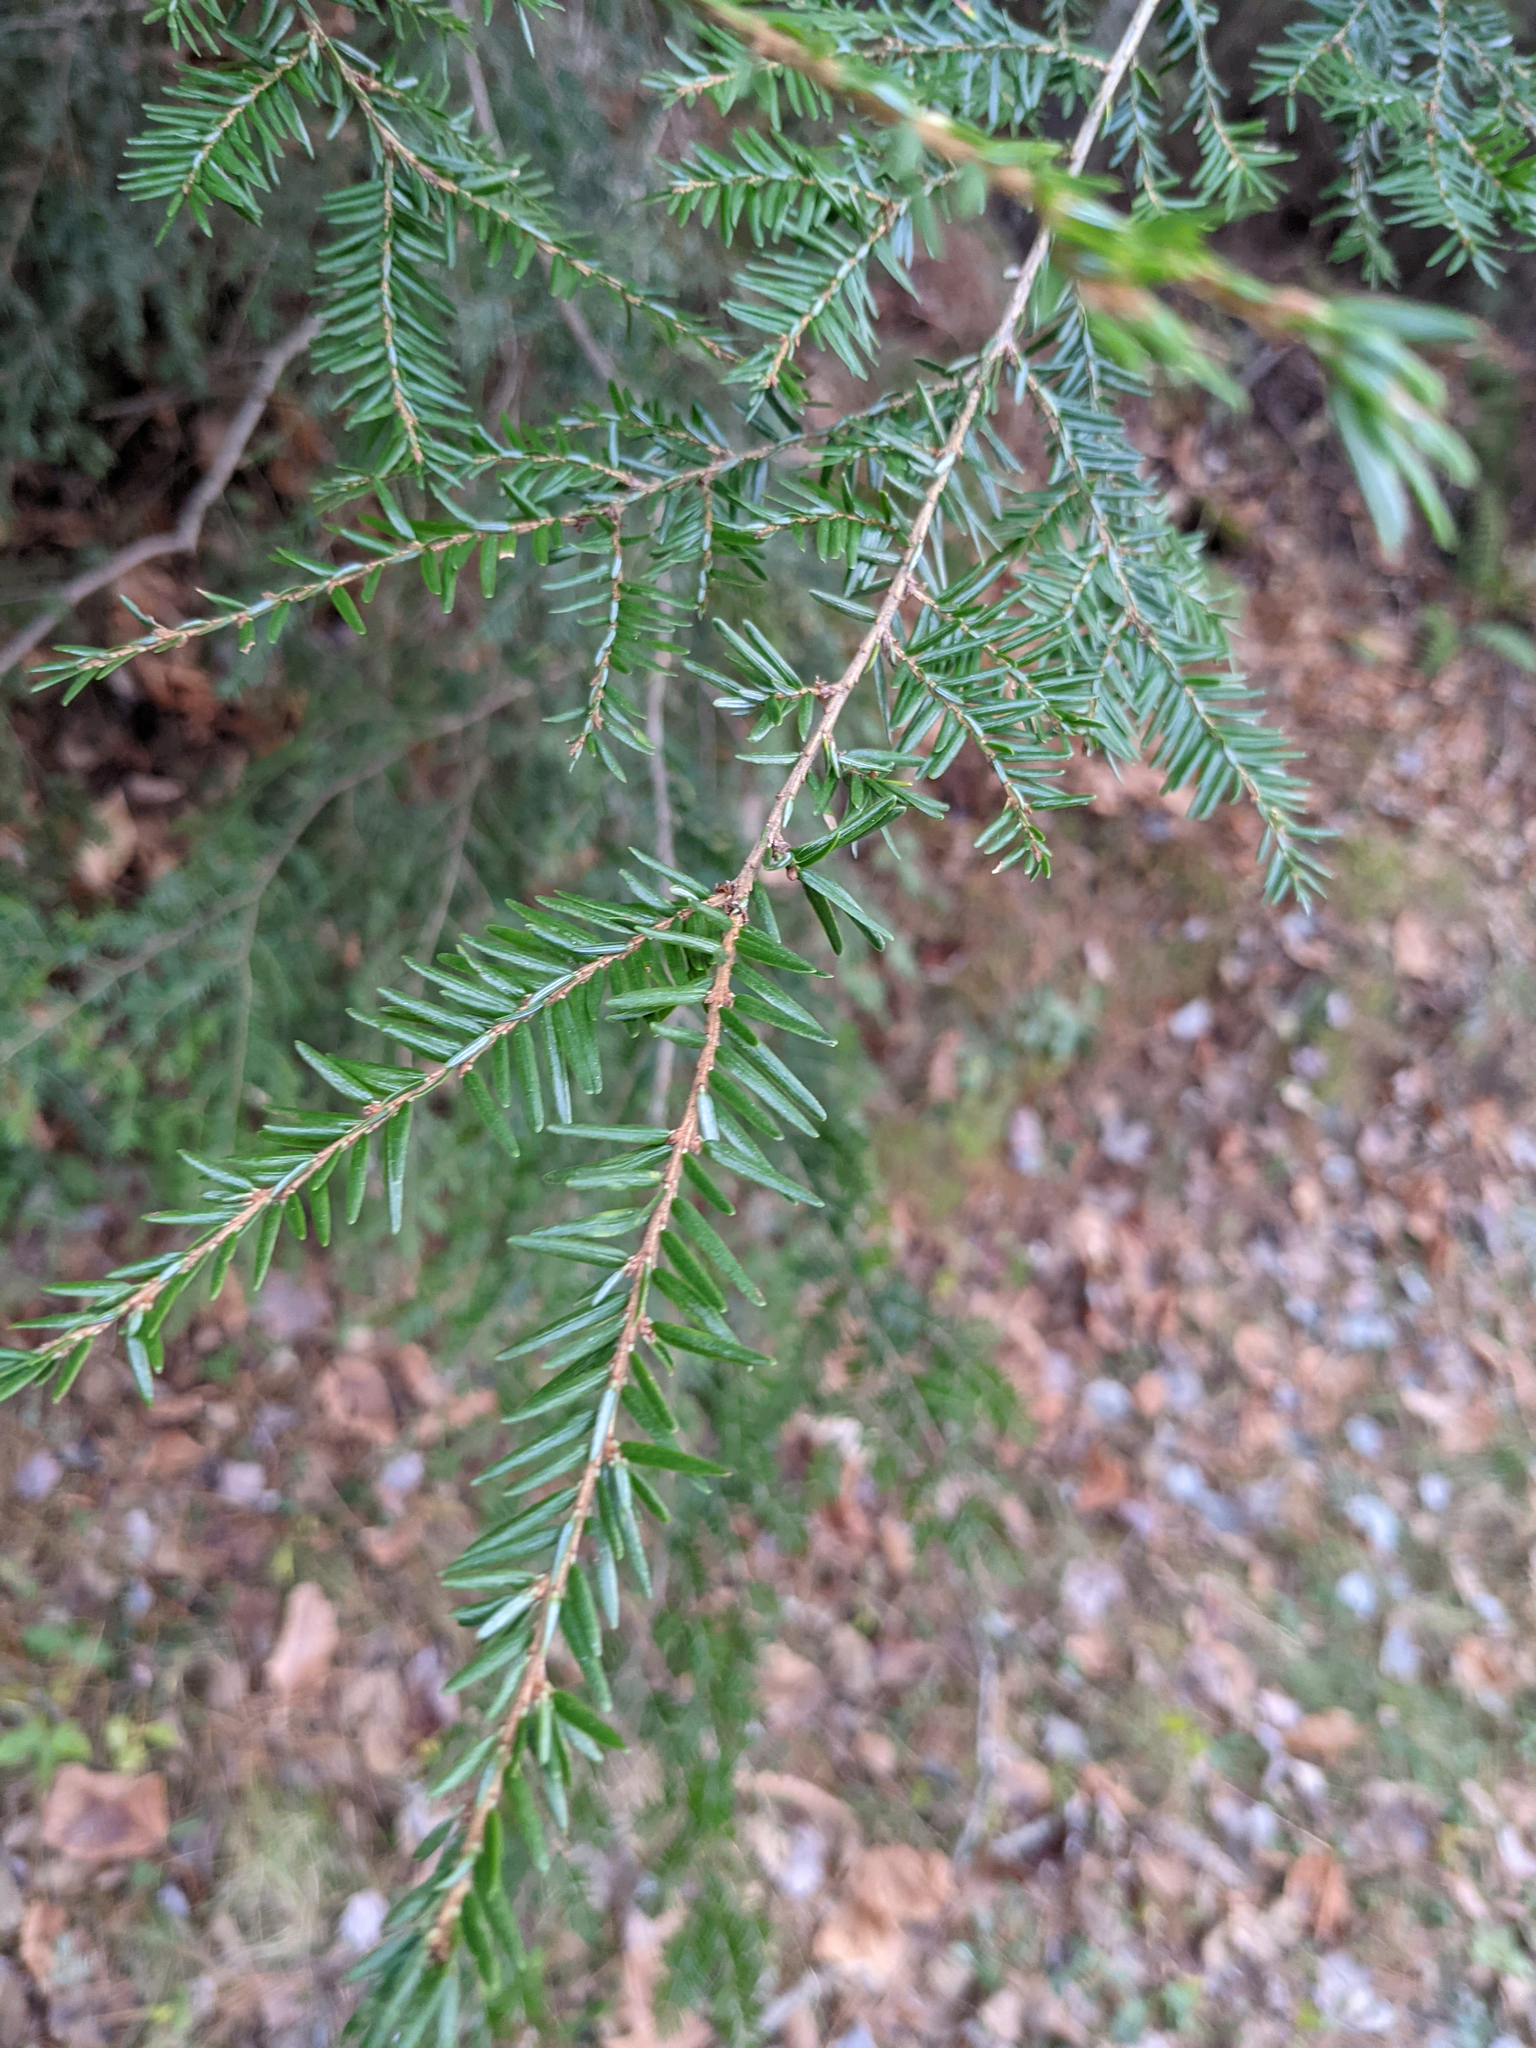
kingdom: Plantae
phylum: Tracheophyta
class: Pinopsida
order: Pinales
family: Pinaceae
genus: Tsuga
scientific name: Tsuga canadensis
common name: Eastern hemlock
